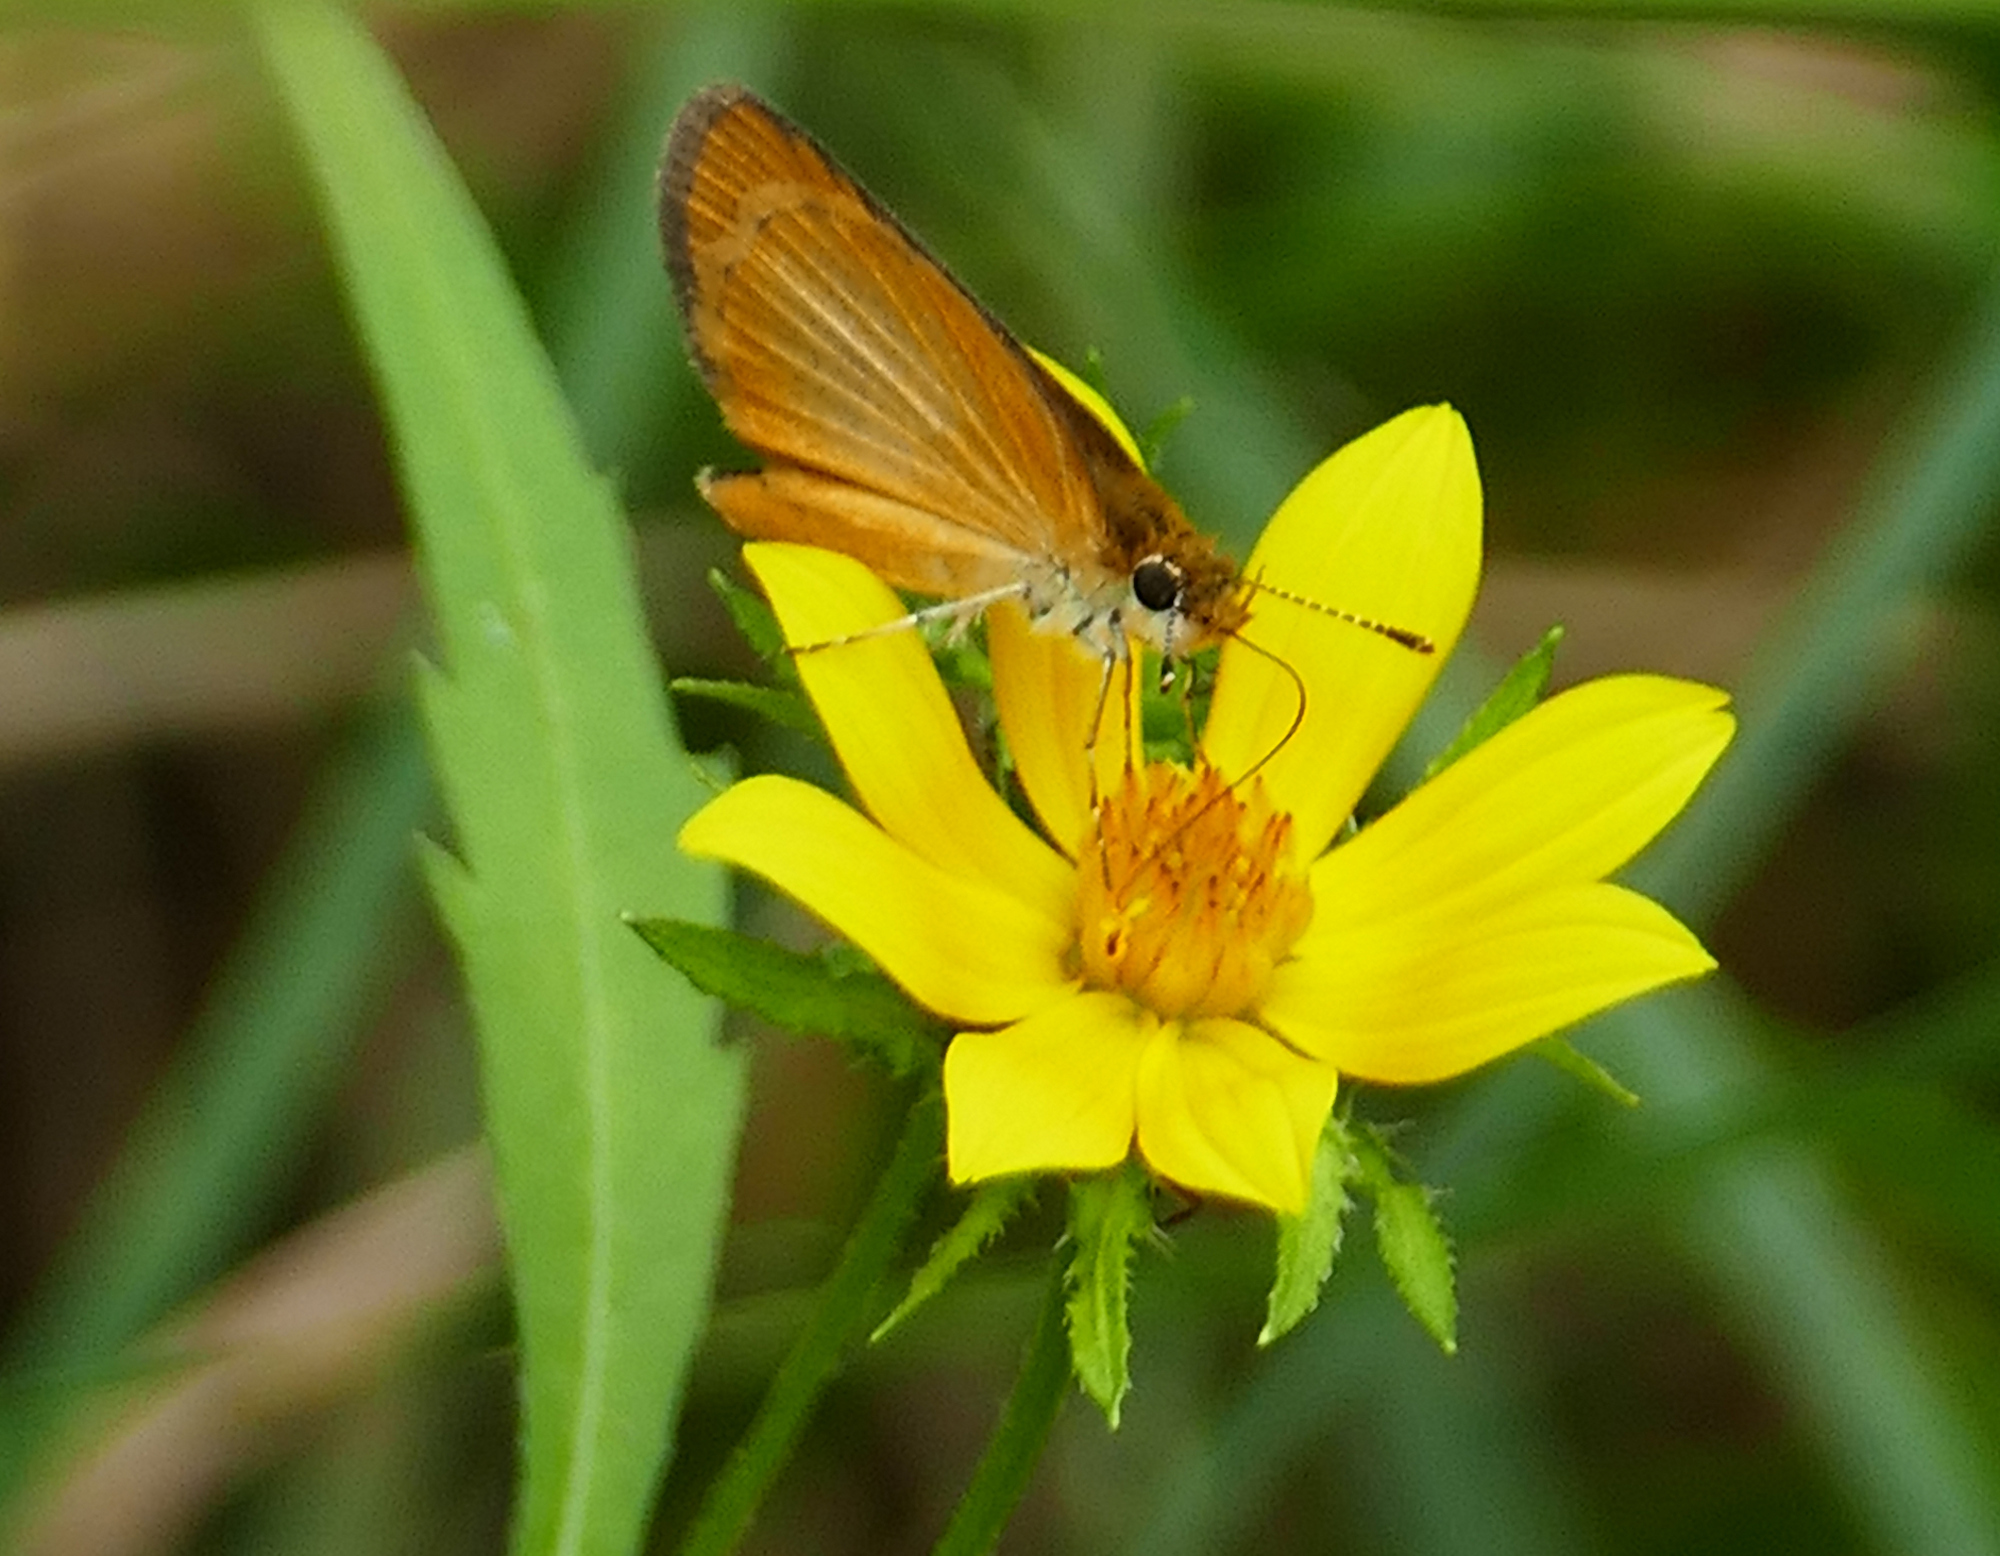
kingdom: Animalia
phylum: Arthropoda
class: Insecta
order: Lepidoptera
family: Hesperiidae
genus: Ancyloxypha
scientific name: Ancyloxypha numitor
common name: Least skipper
